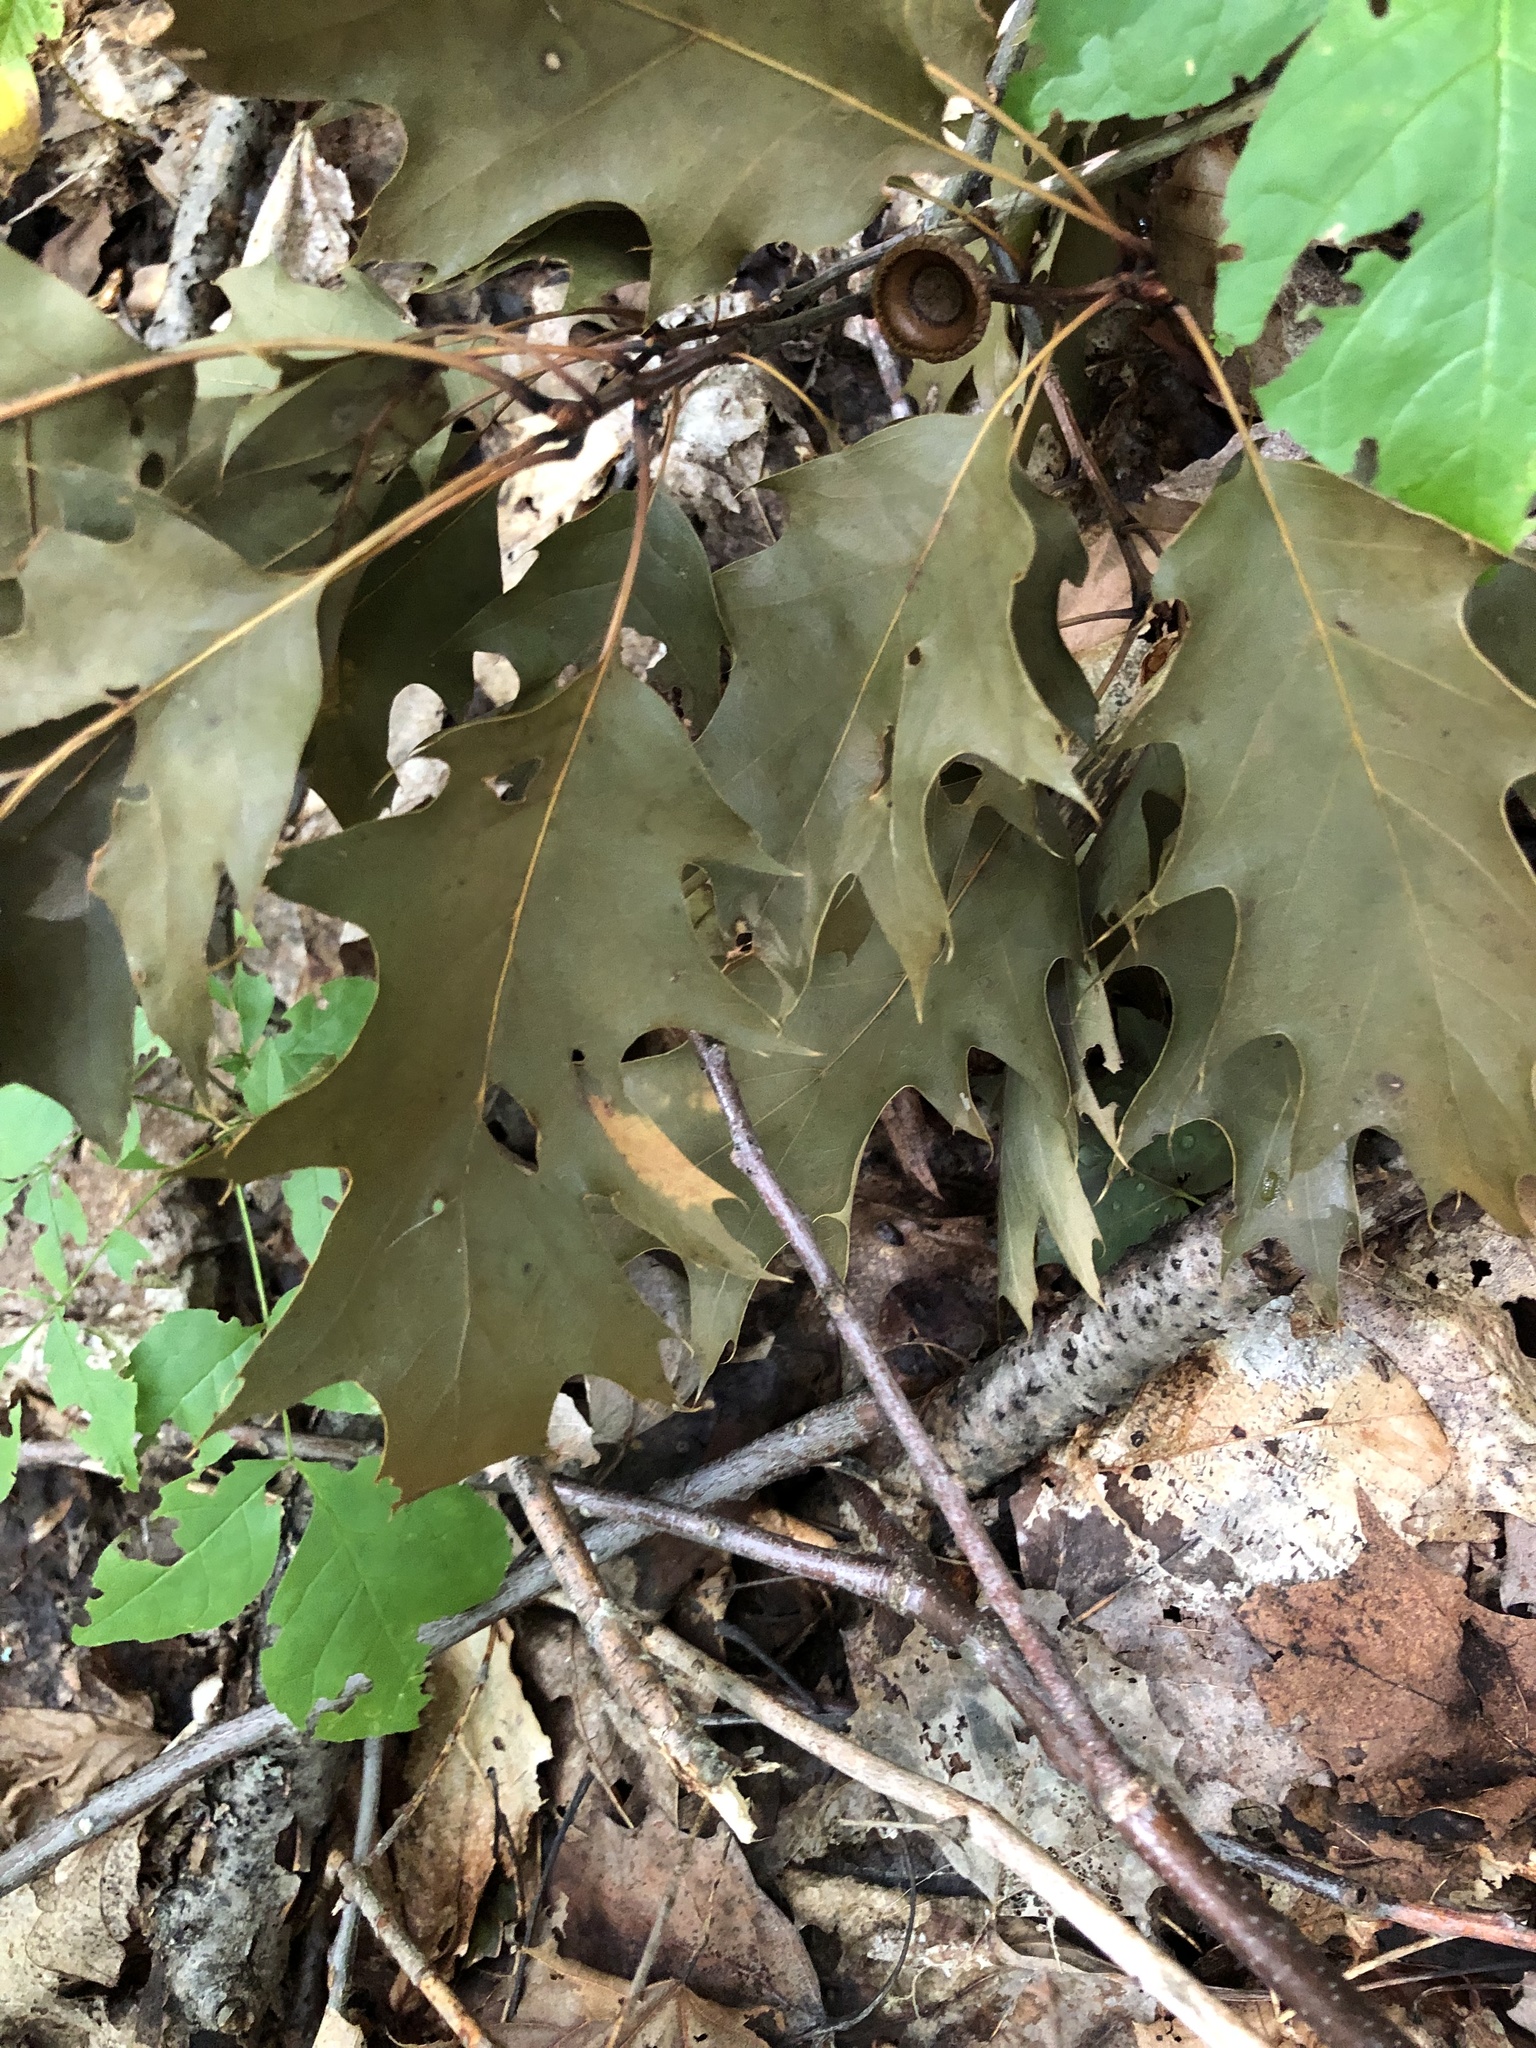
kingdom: Plantae
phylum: Tracheophyta
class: Magnoliopsida
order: Fagales
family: Fagaceae
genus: Quercus
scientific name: Quercus rubra
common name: Red oak
